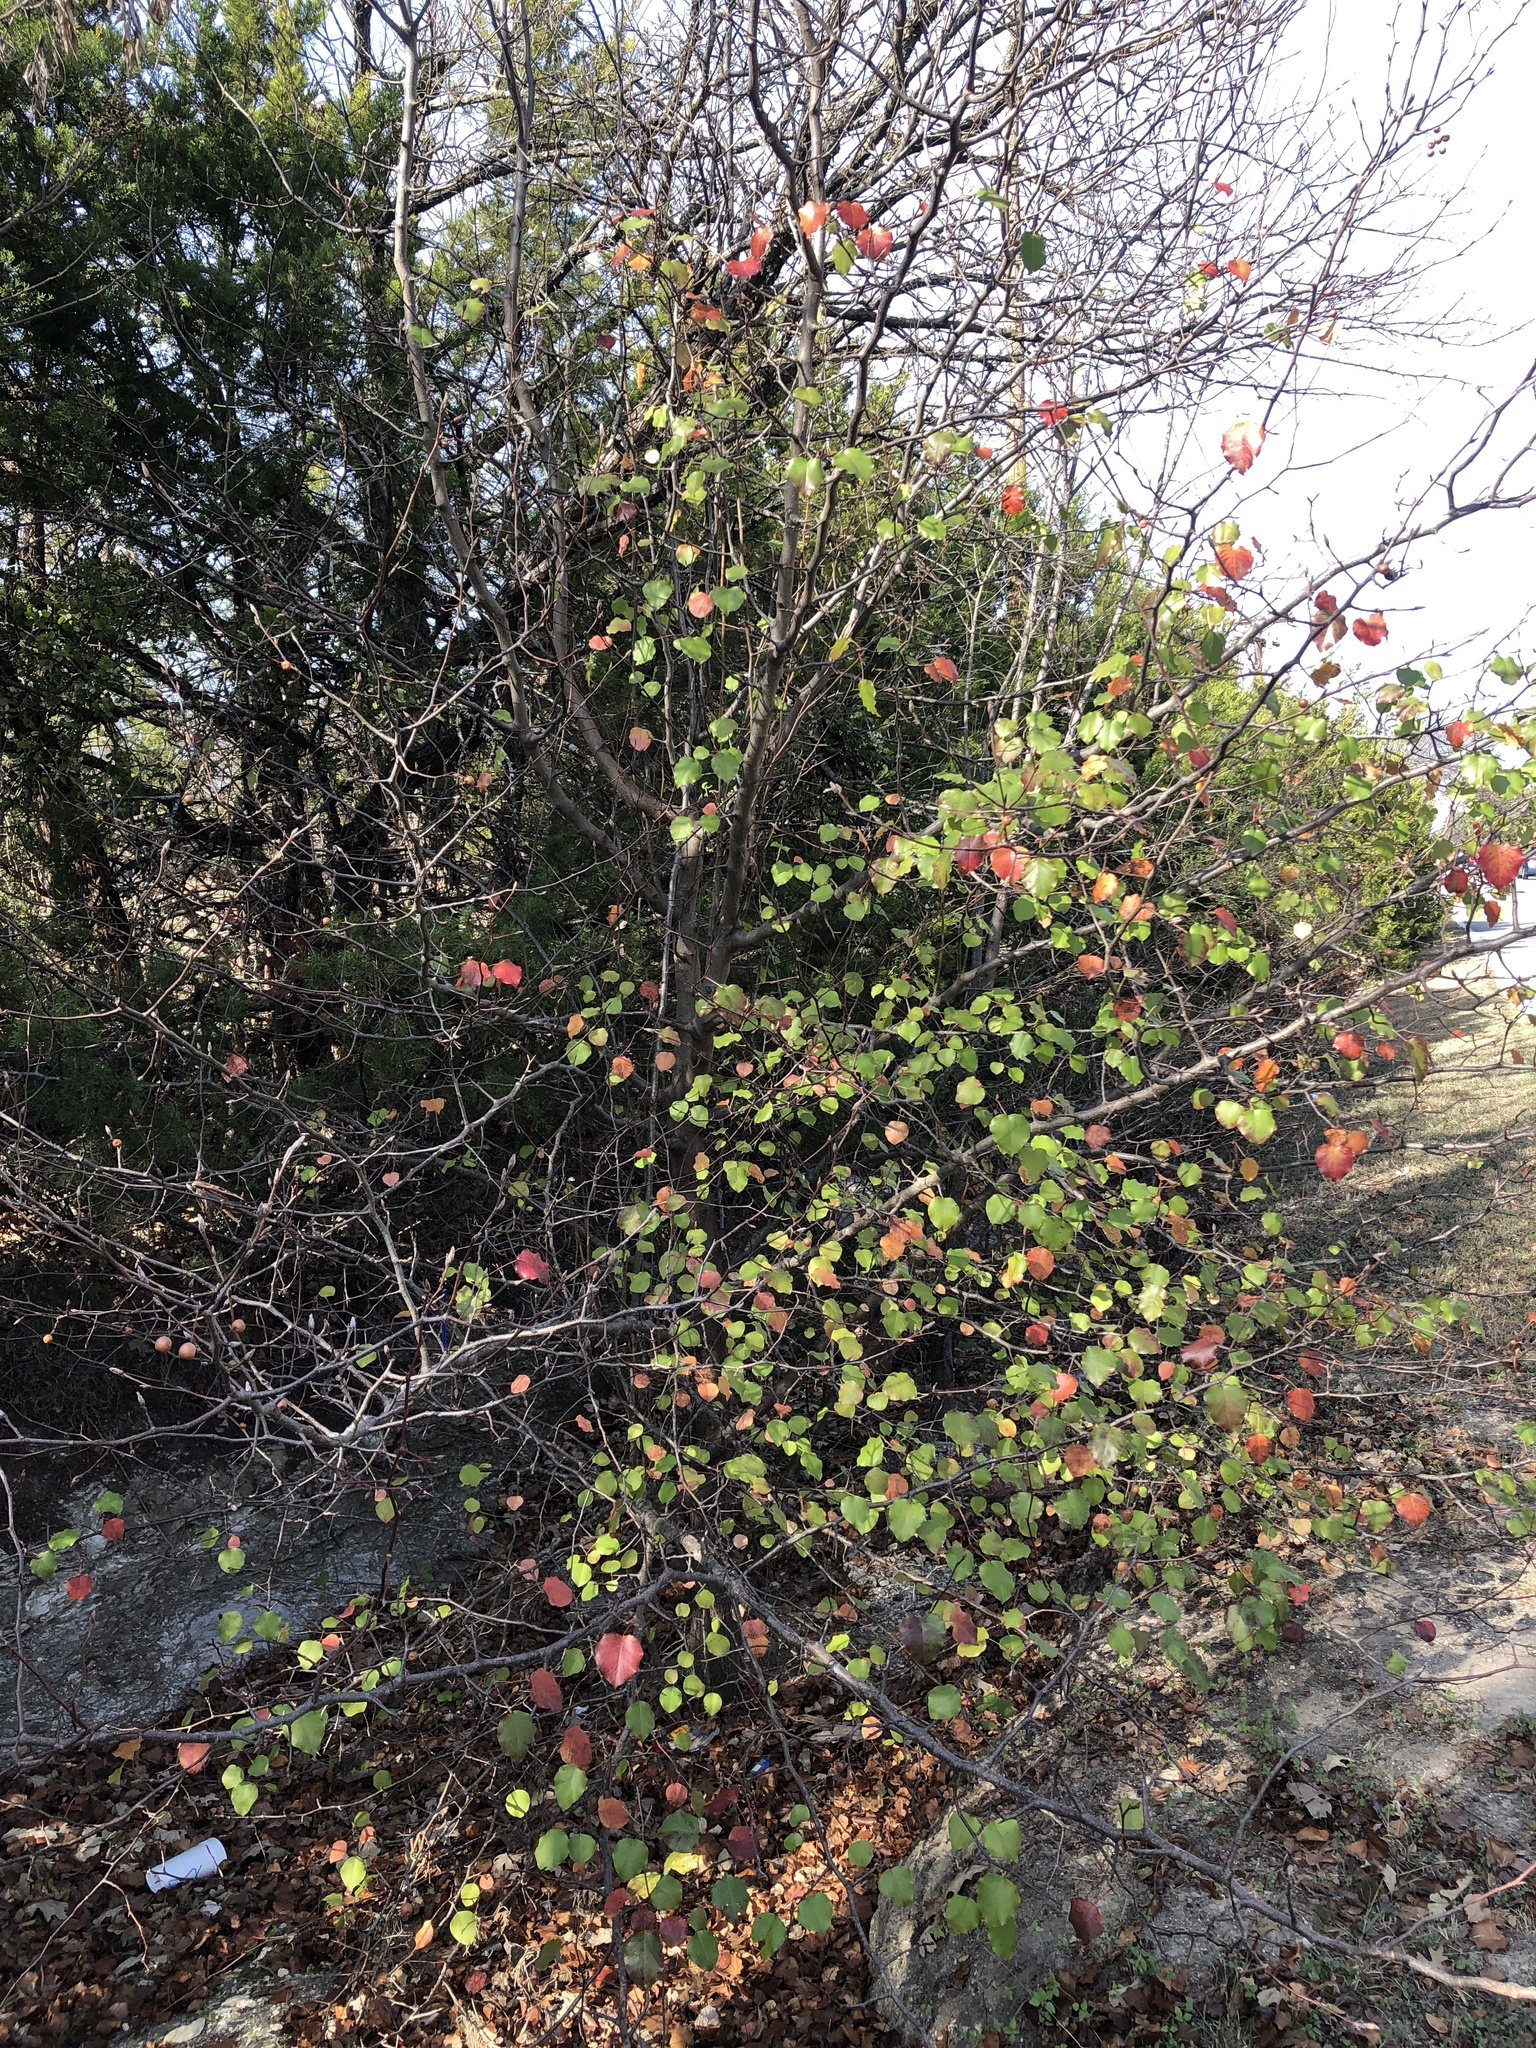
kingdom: Plantae
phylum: Tracheophyta
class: Magnoliopsida
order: Rosales
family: Rosaceae
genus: Pyrus
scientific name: Pyrus calleryana
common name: Callery pear
